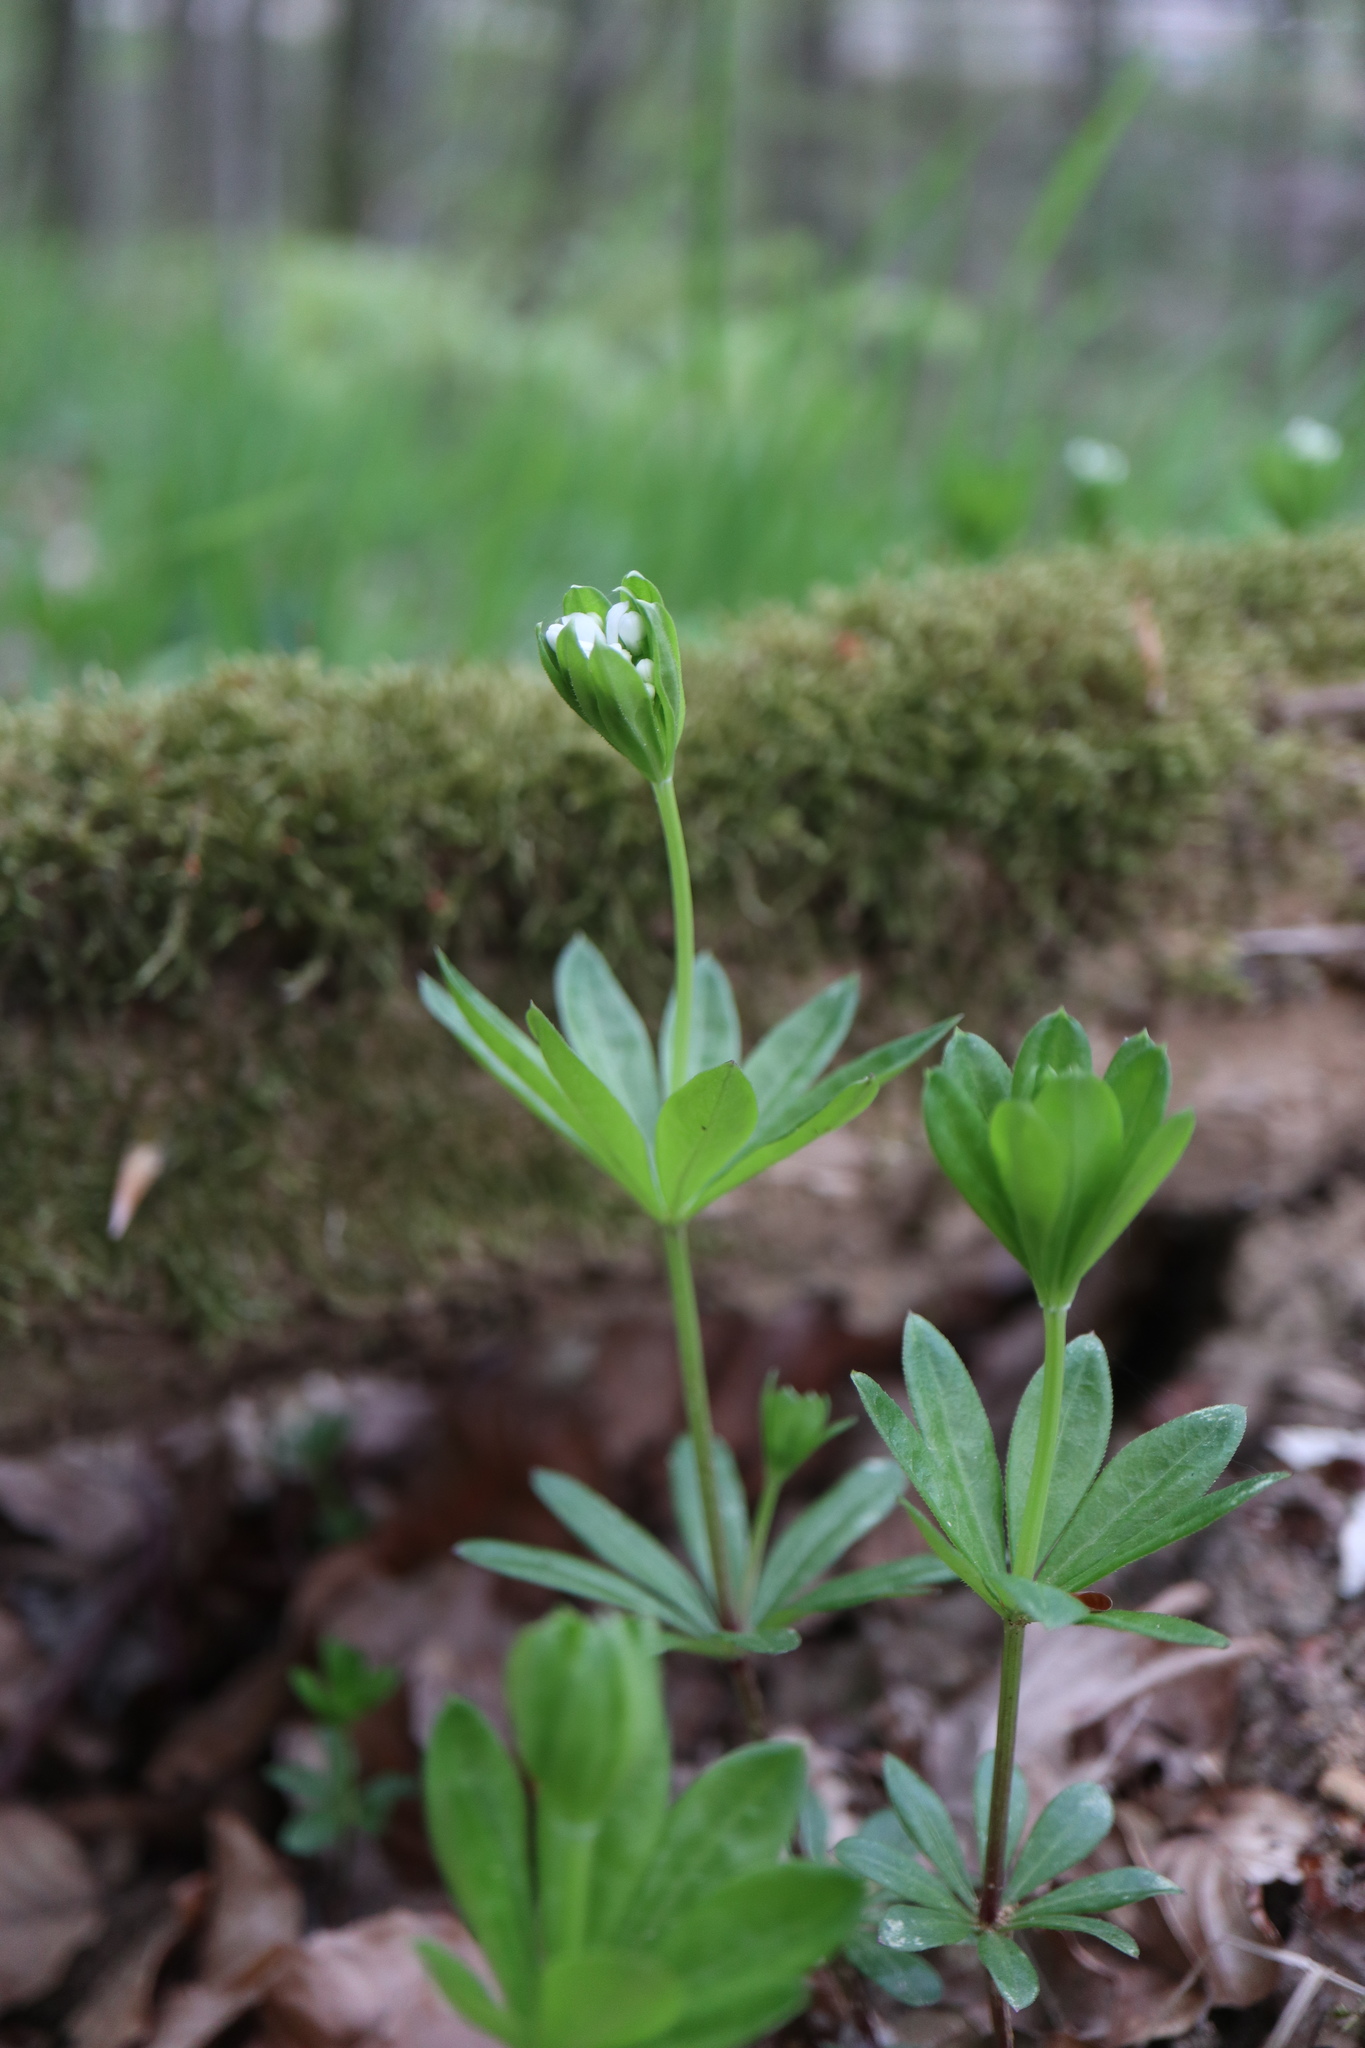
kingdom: Plantae
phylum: Tracheophyta
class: Magnoliopsida
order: Gentianales
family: Rubiaceae
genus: Galium
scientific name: Galium odoratum
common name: Sweet woodruff
